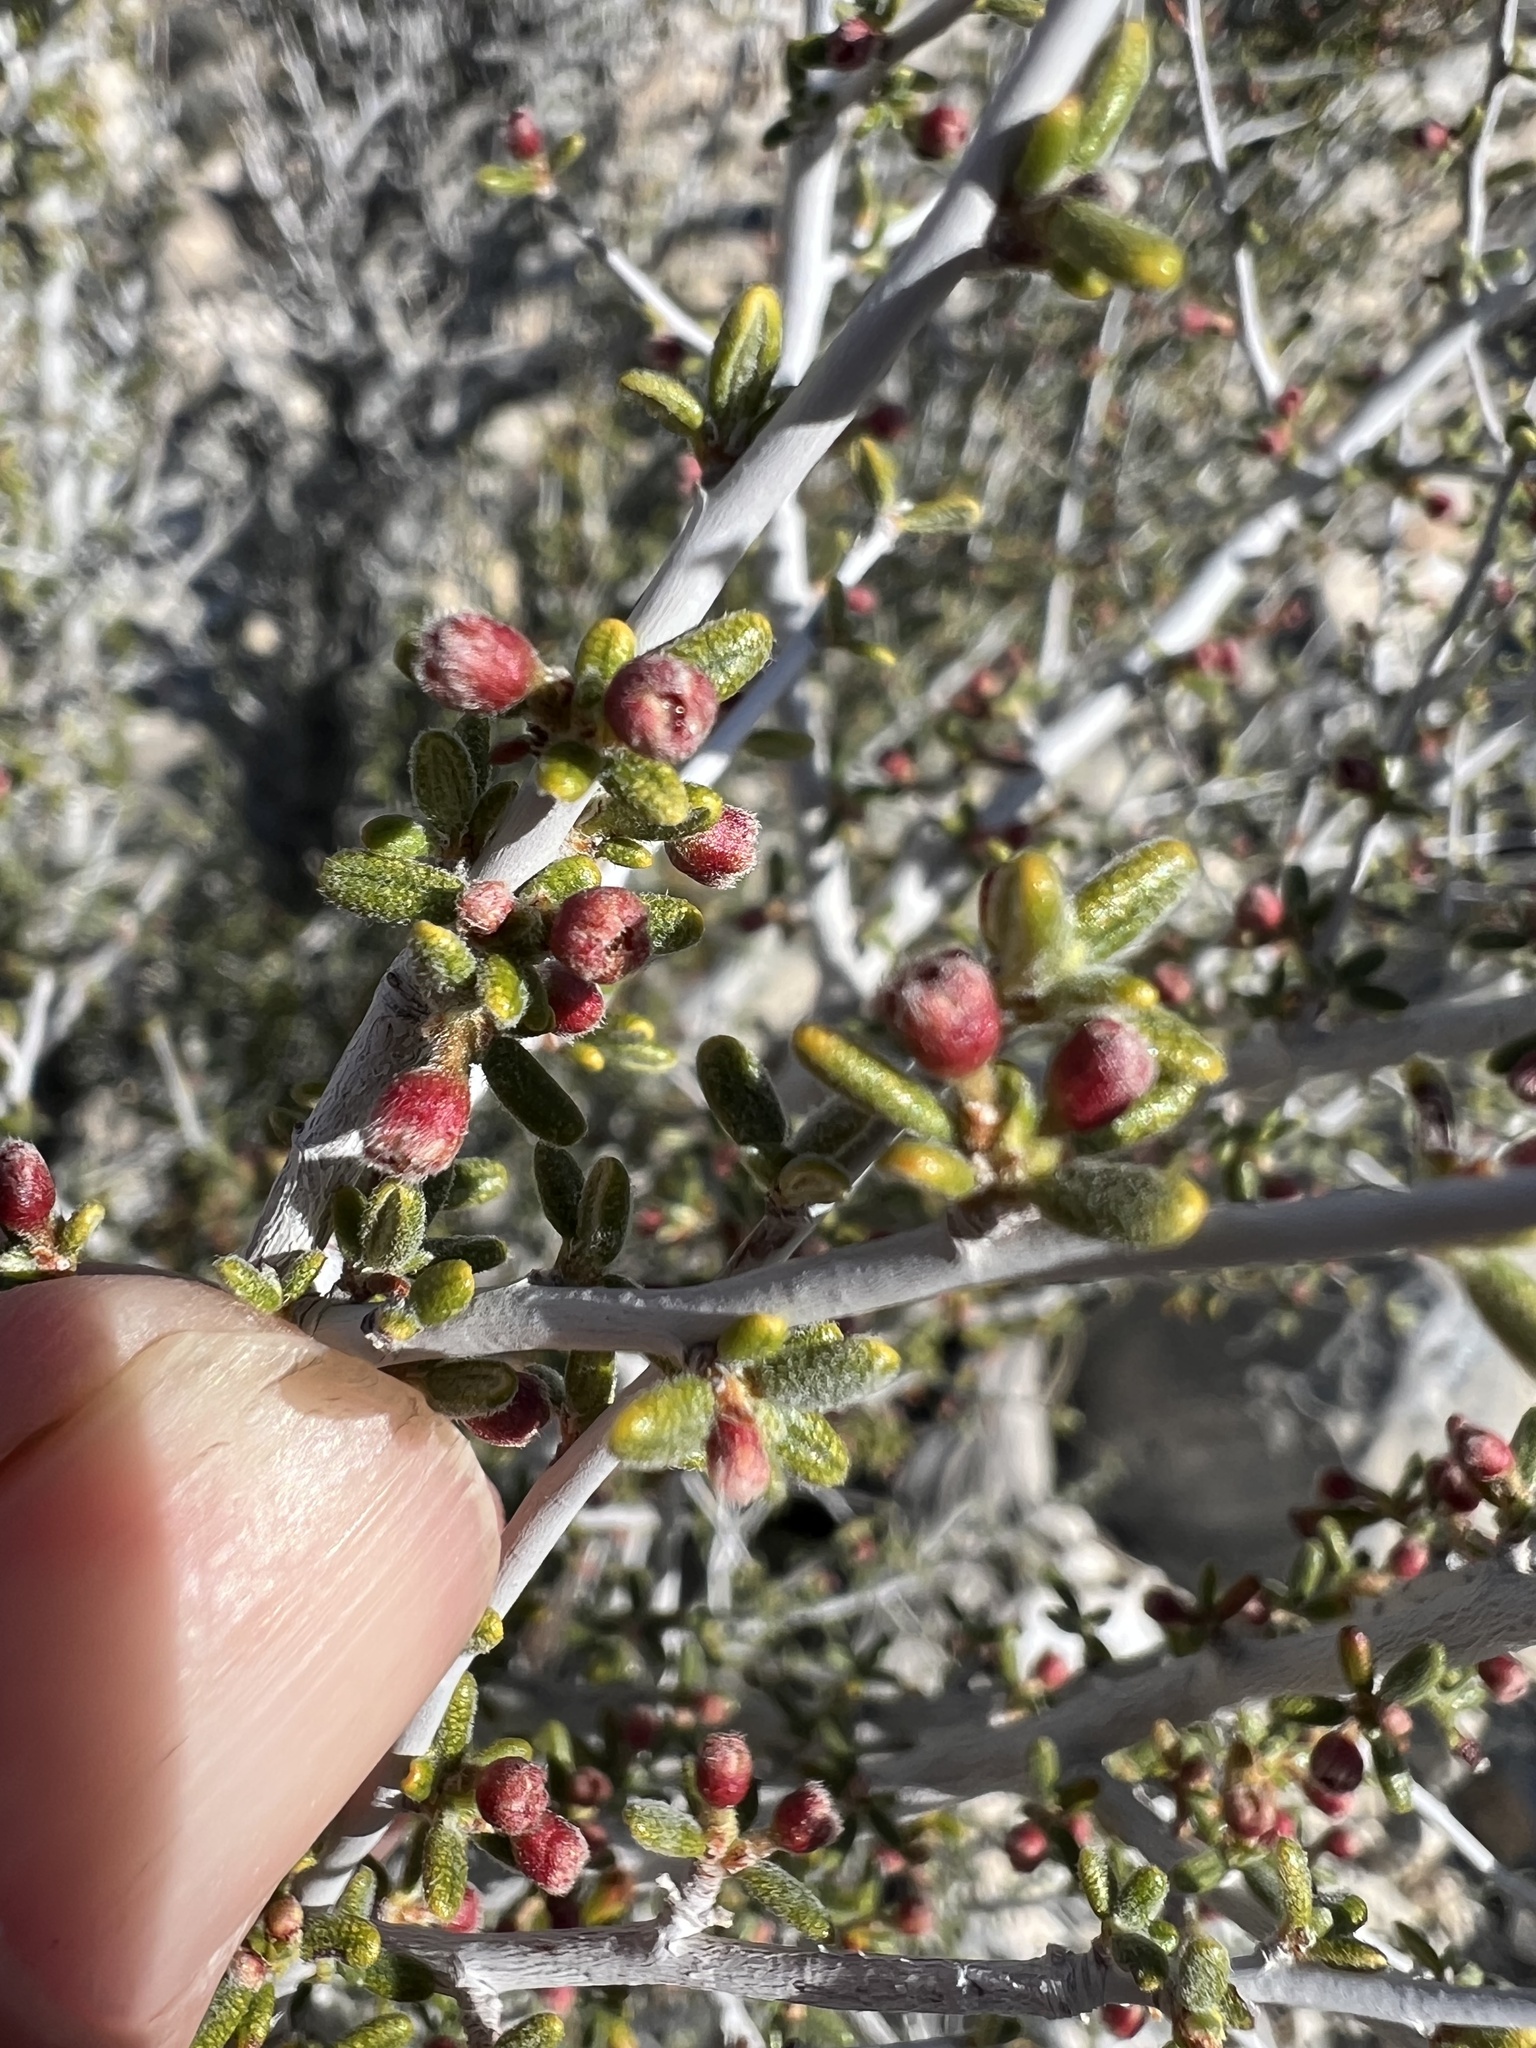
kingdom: Plantae
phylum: Tracheophyta
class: Magnoliopsida
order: Rosales
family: Rosaceae
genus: Cercocarpus
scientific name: Cercocarpus intricatus
